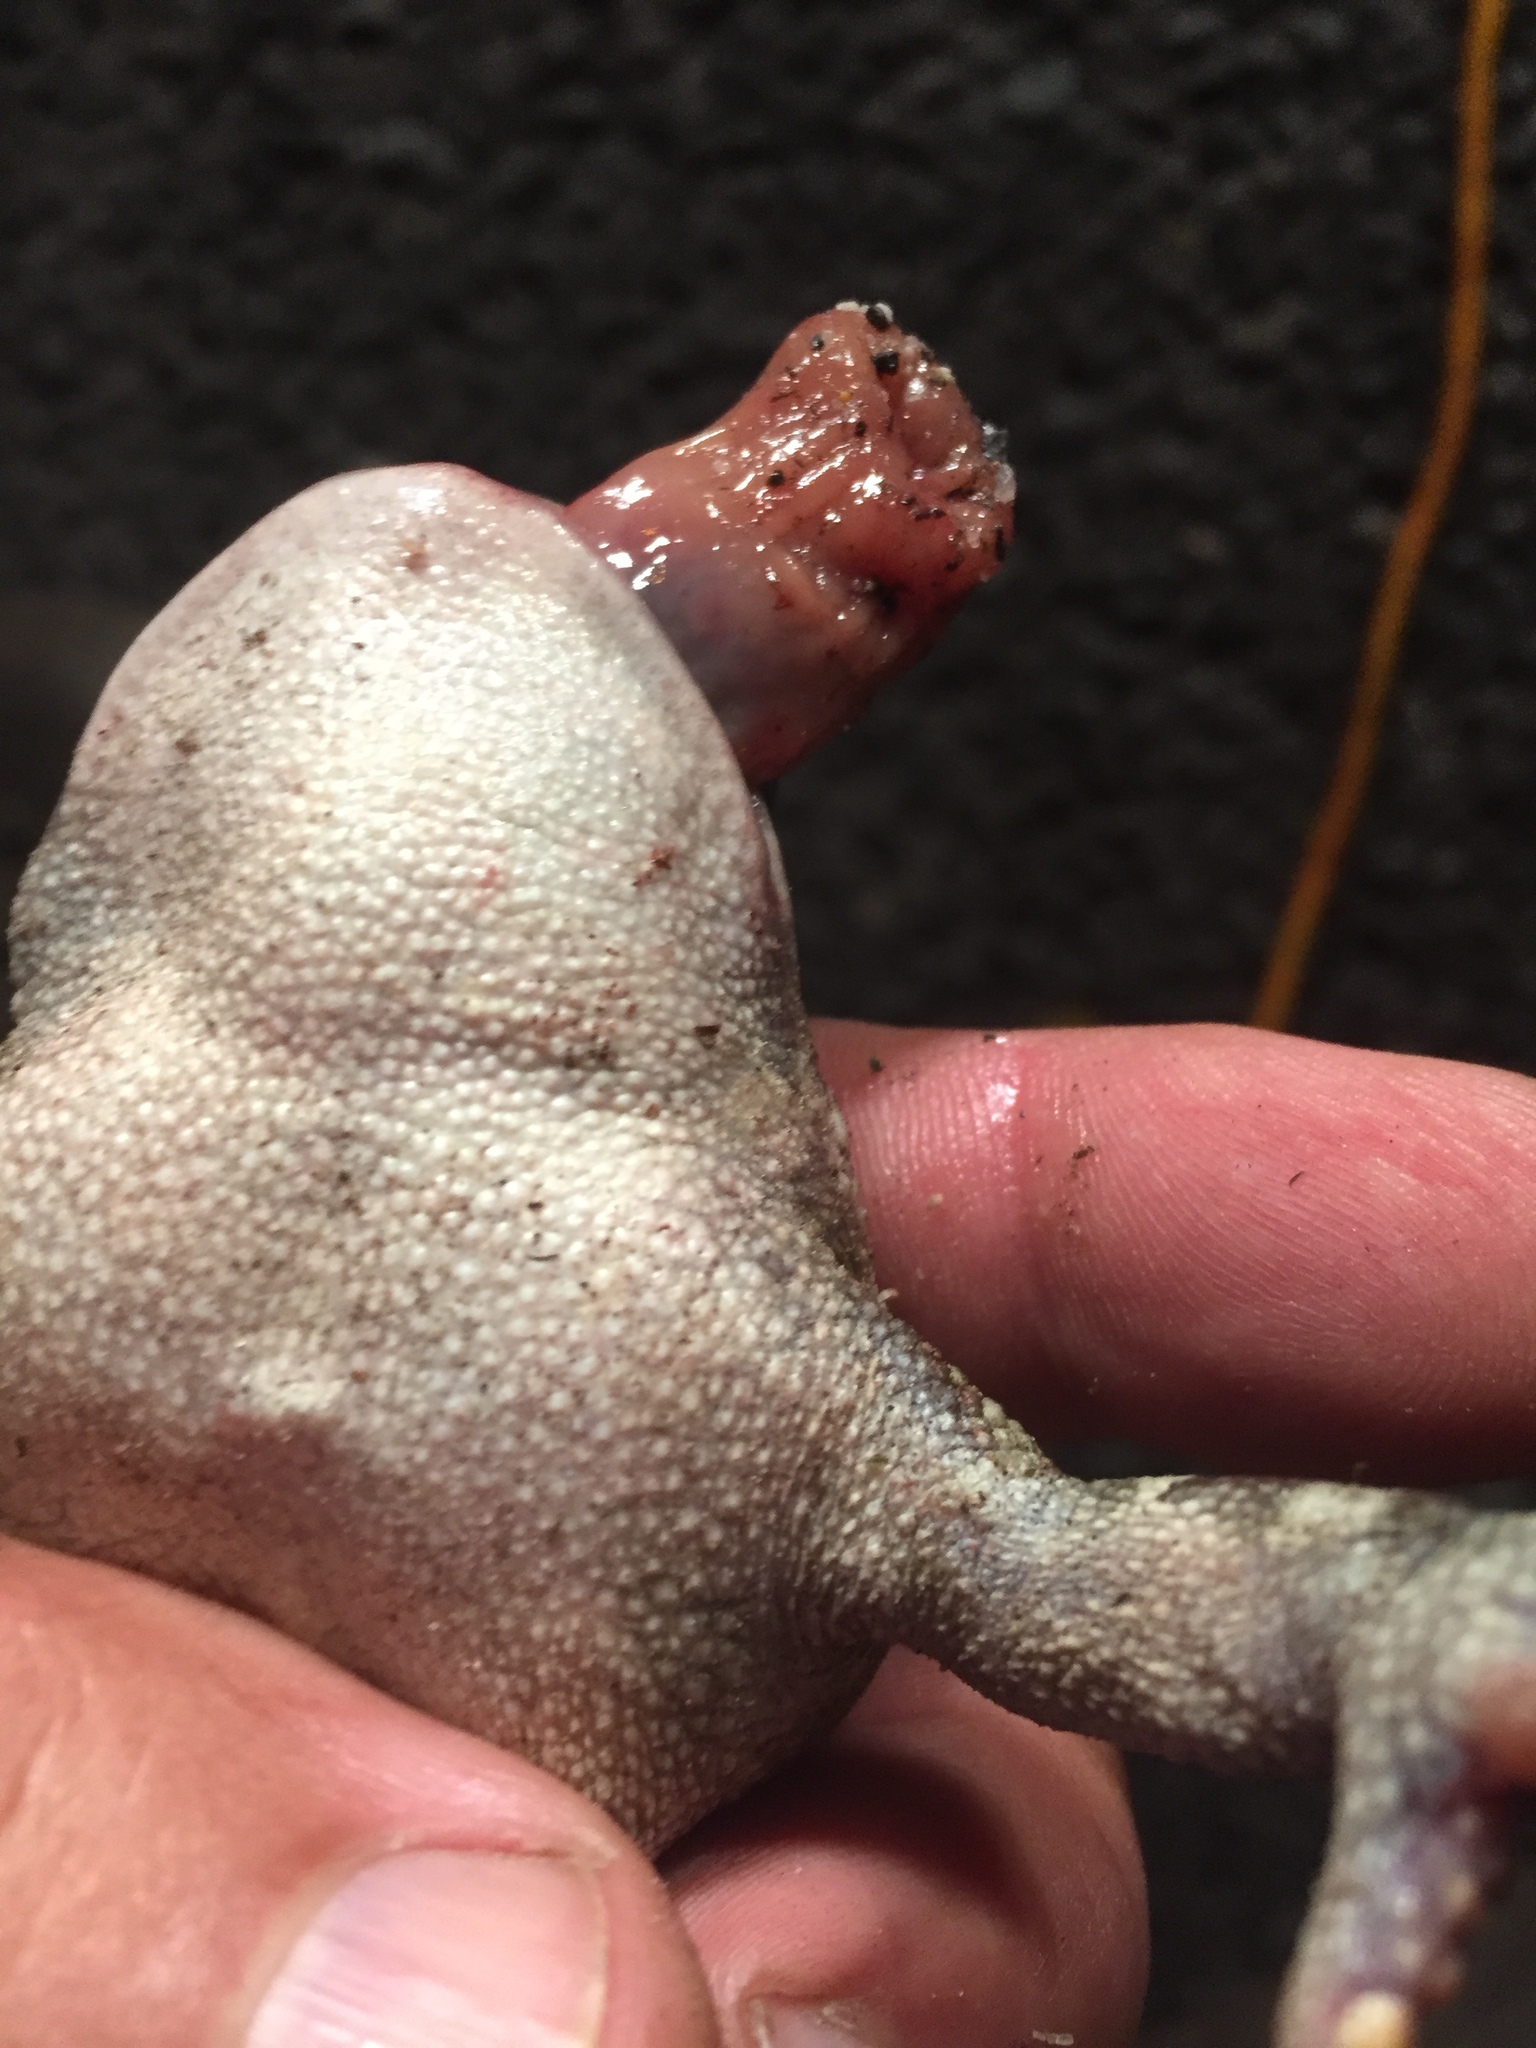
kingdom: Animalia
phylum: Chordata
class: Amphibia
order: Anura
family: Bufonidae
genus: Sclerophrys
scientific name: Sclerophrys pantherina
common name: Panther toad
